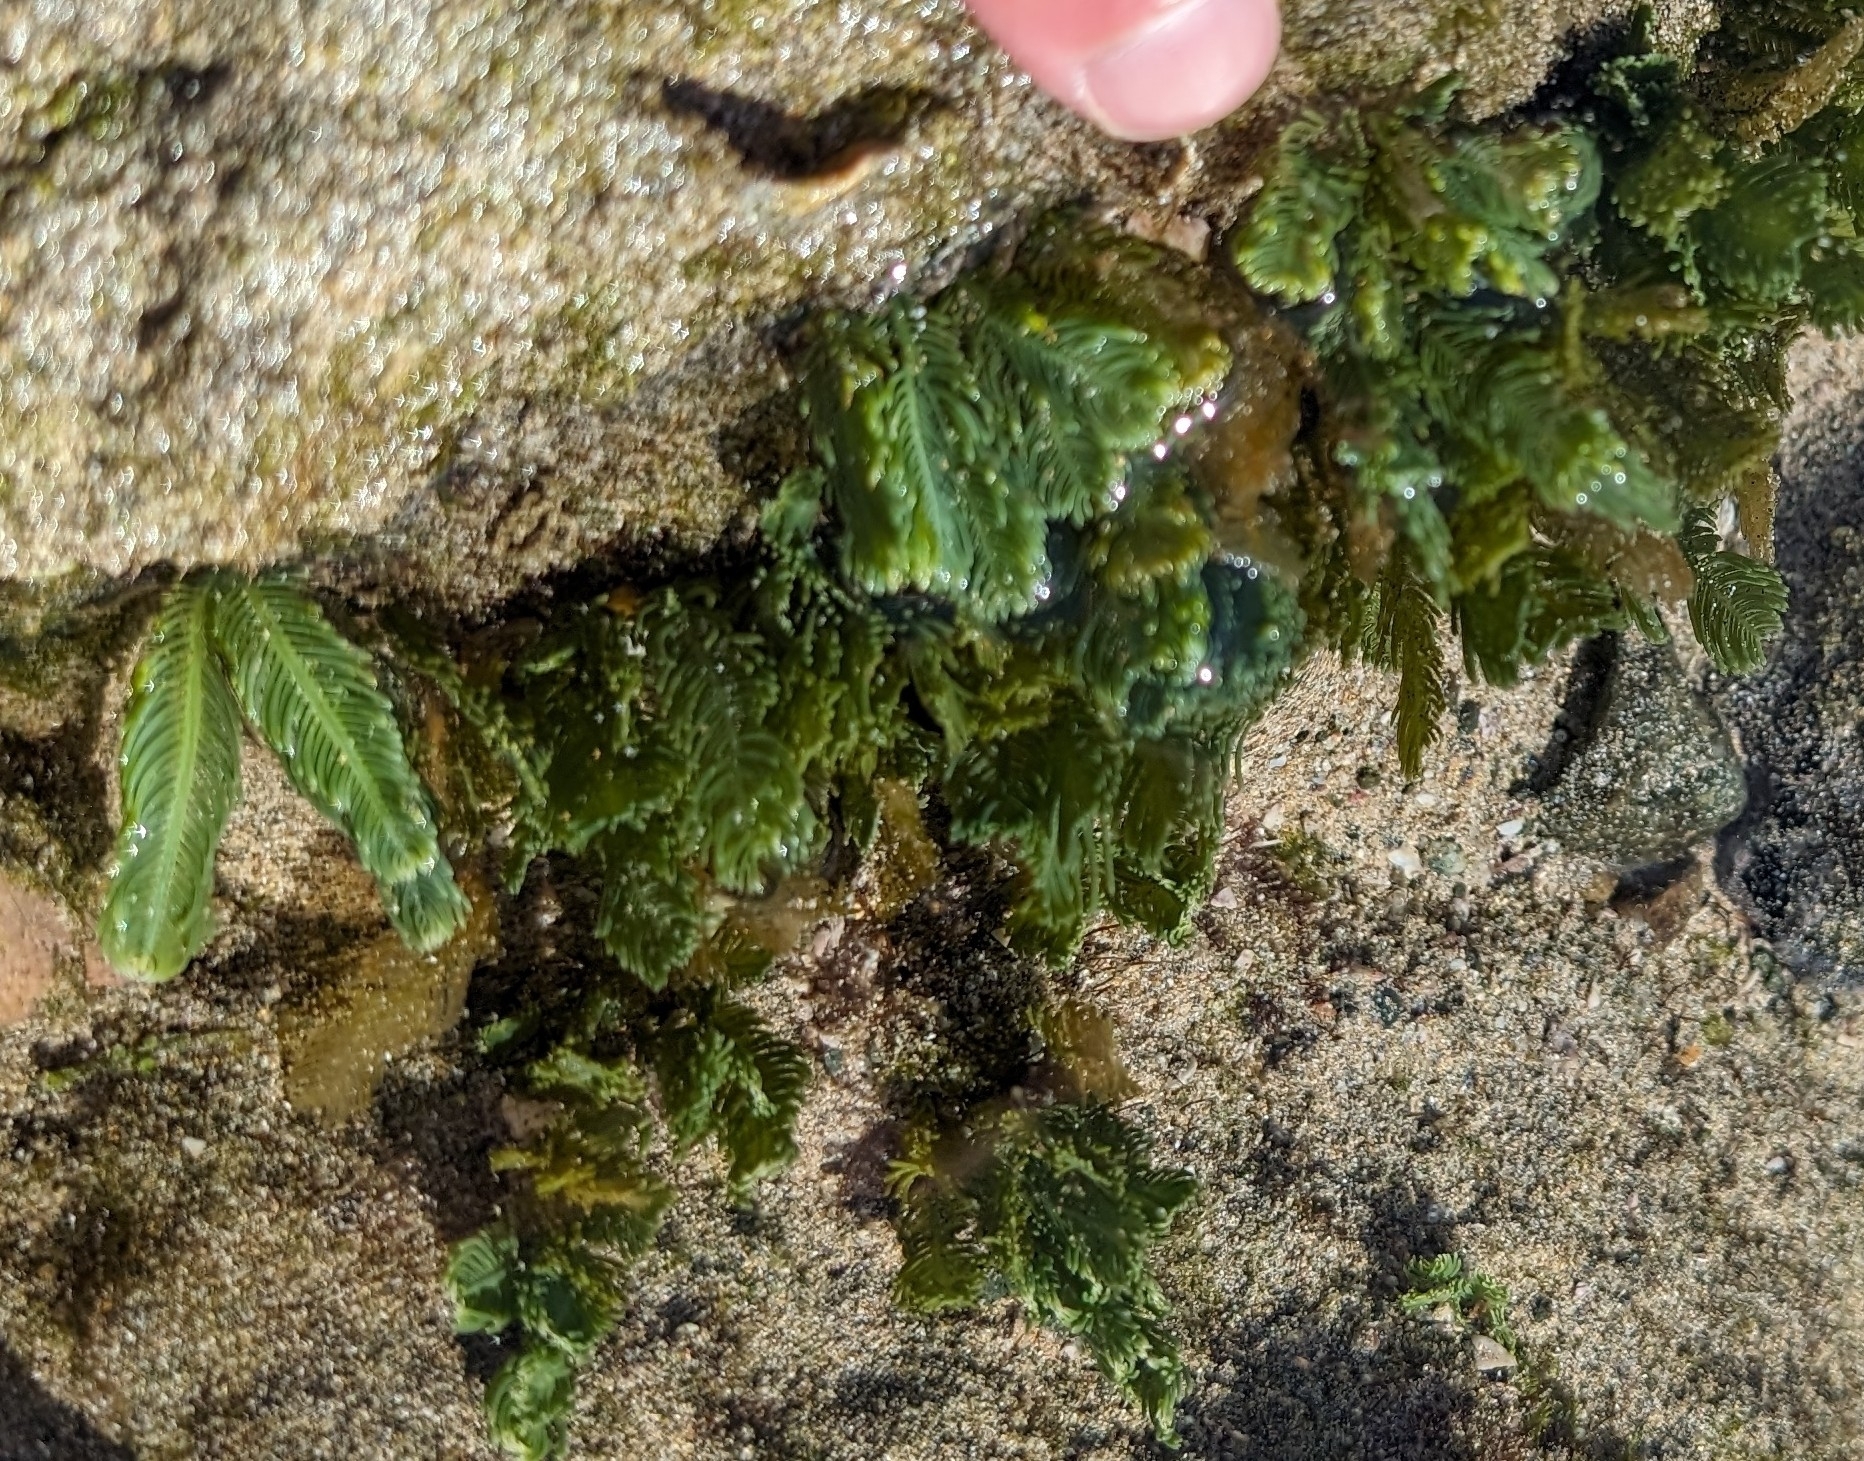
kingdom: Plantae
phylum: Chlorophyta
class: Ulvophyceae
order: Bryopsidales
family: Caulerpaceae
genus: Caulerpa
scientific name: Caulerpa sertularioides
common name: Green feather algae
